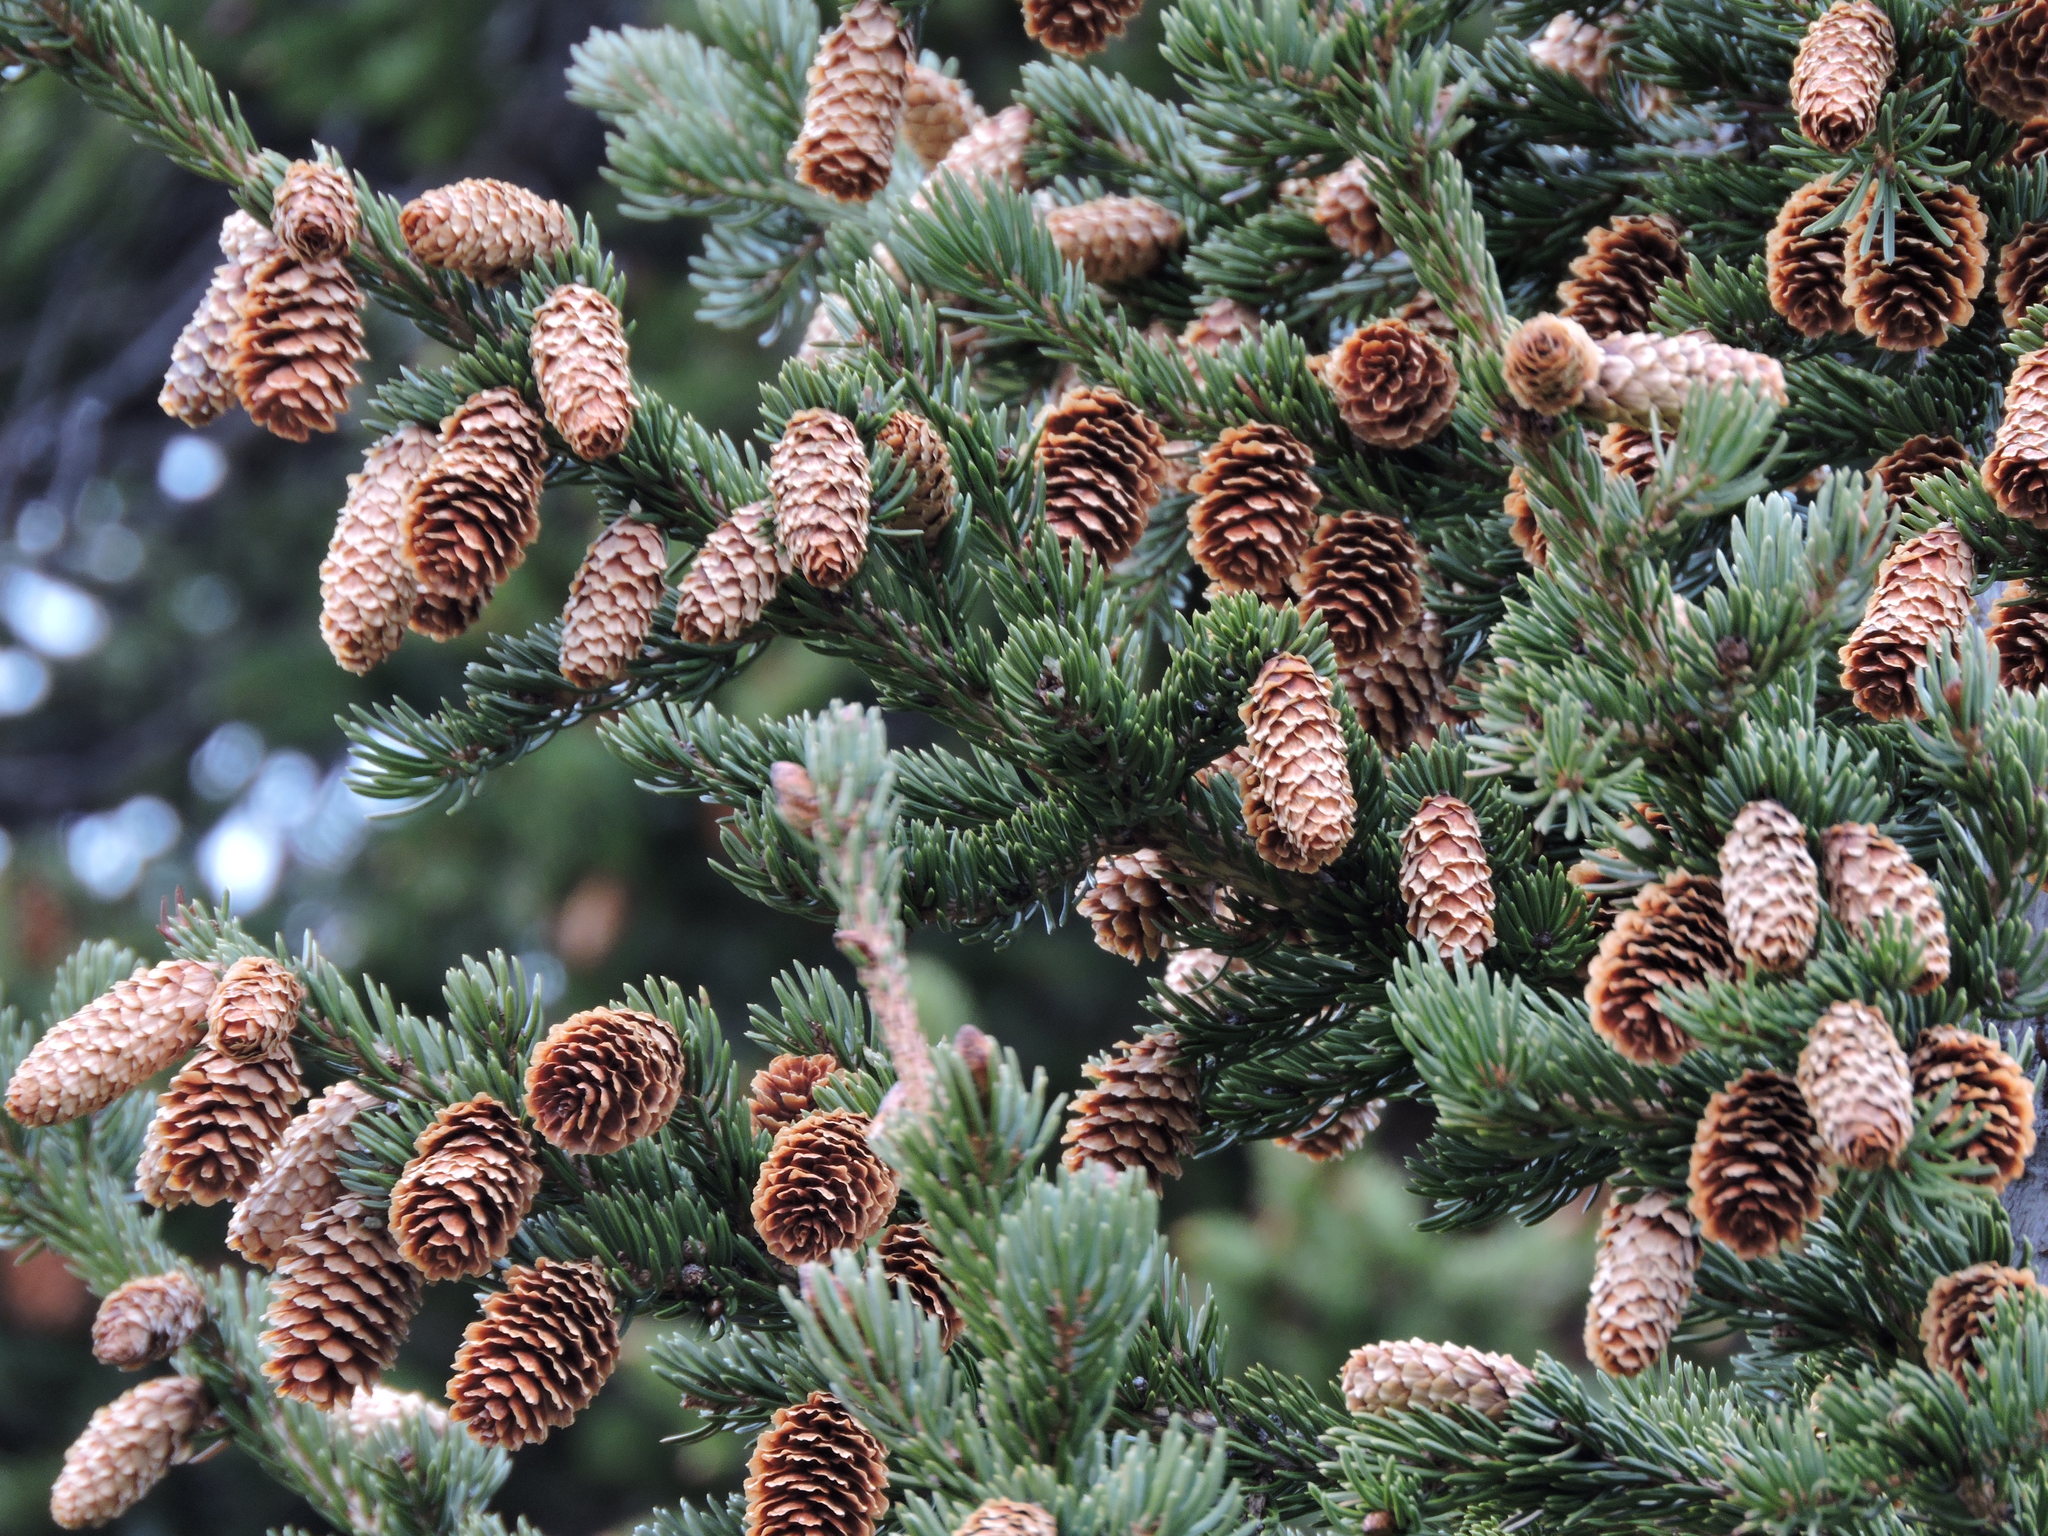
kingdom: Plantae
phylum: Tracheophyta
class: Pinopsida
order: Pinales
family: Pinaceae
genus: Picea
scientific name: Picea engelmannii
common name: Engelmann spruce
